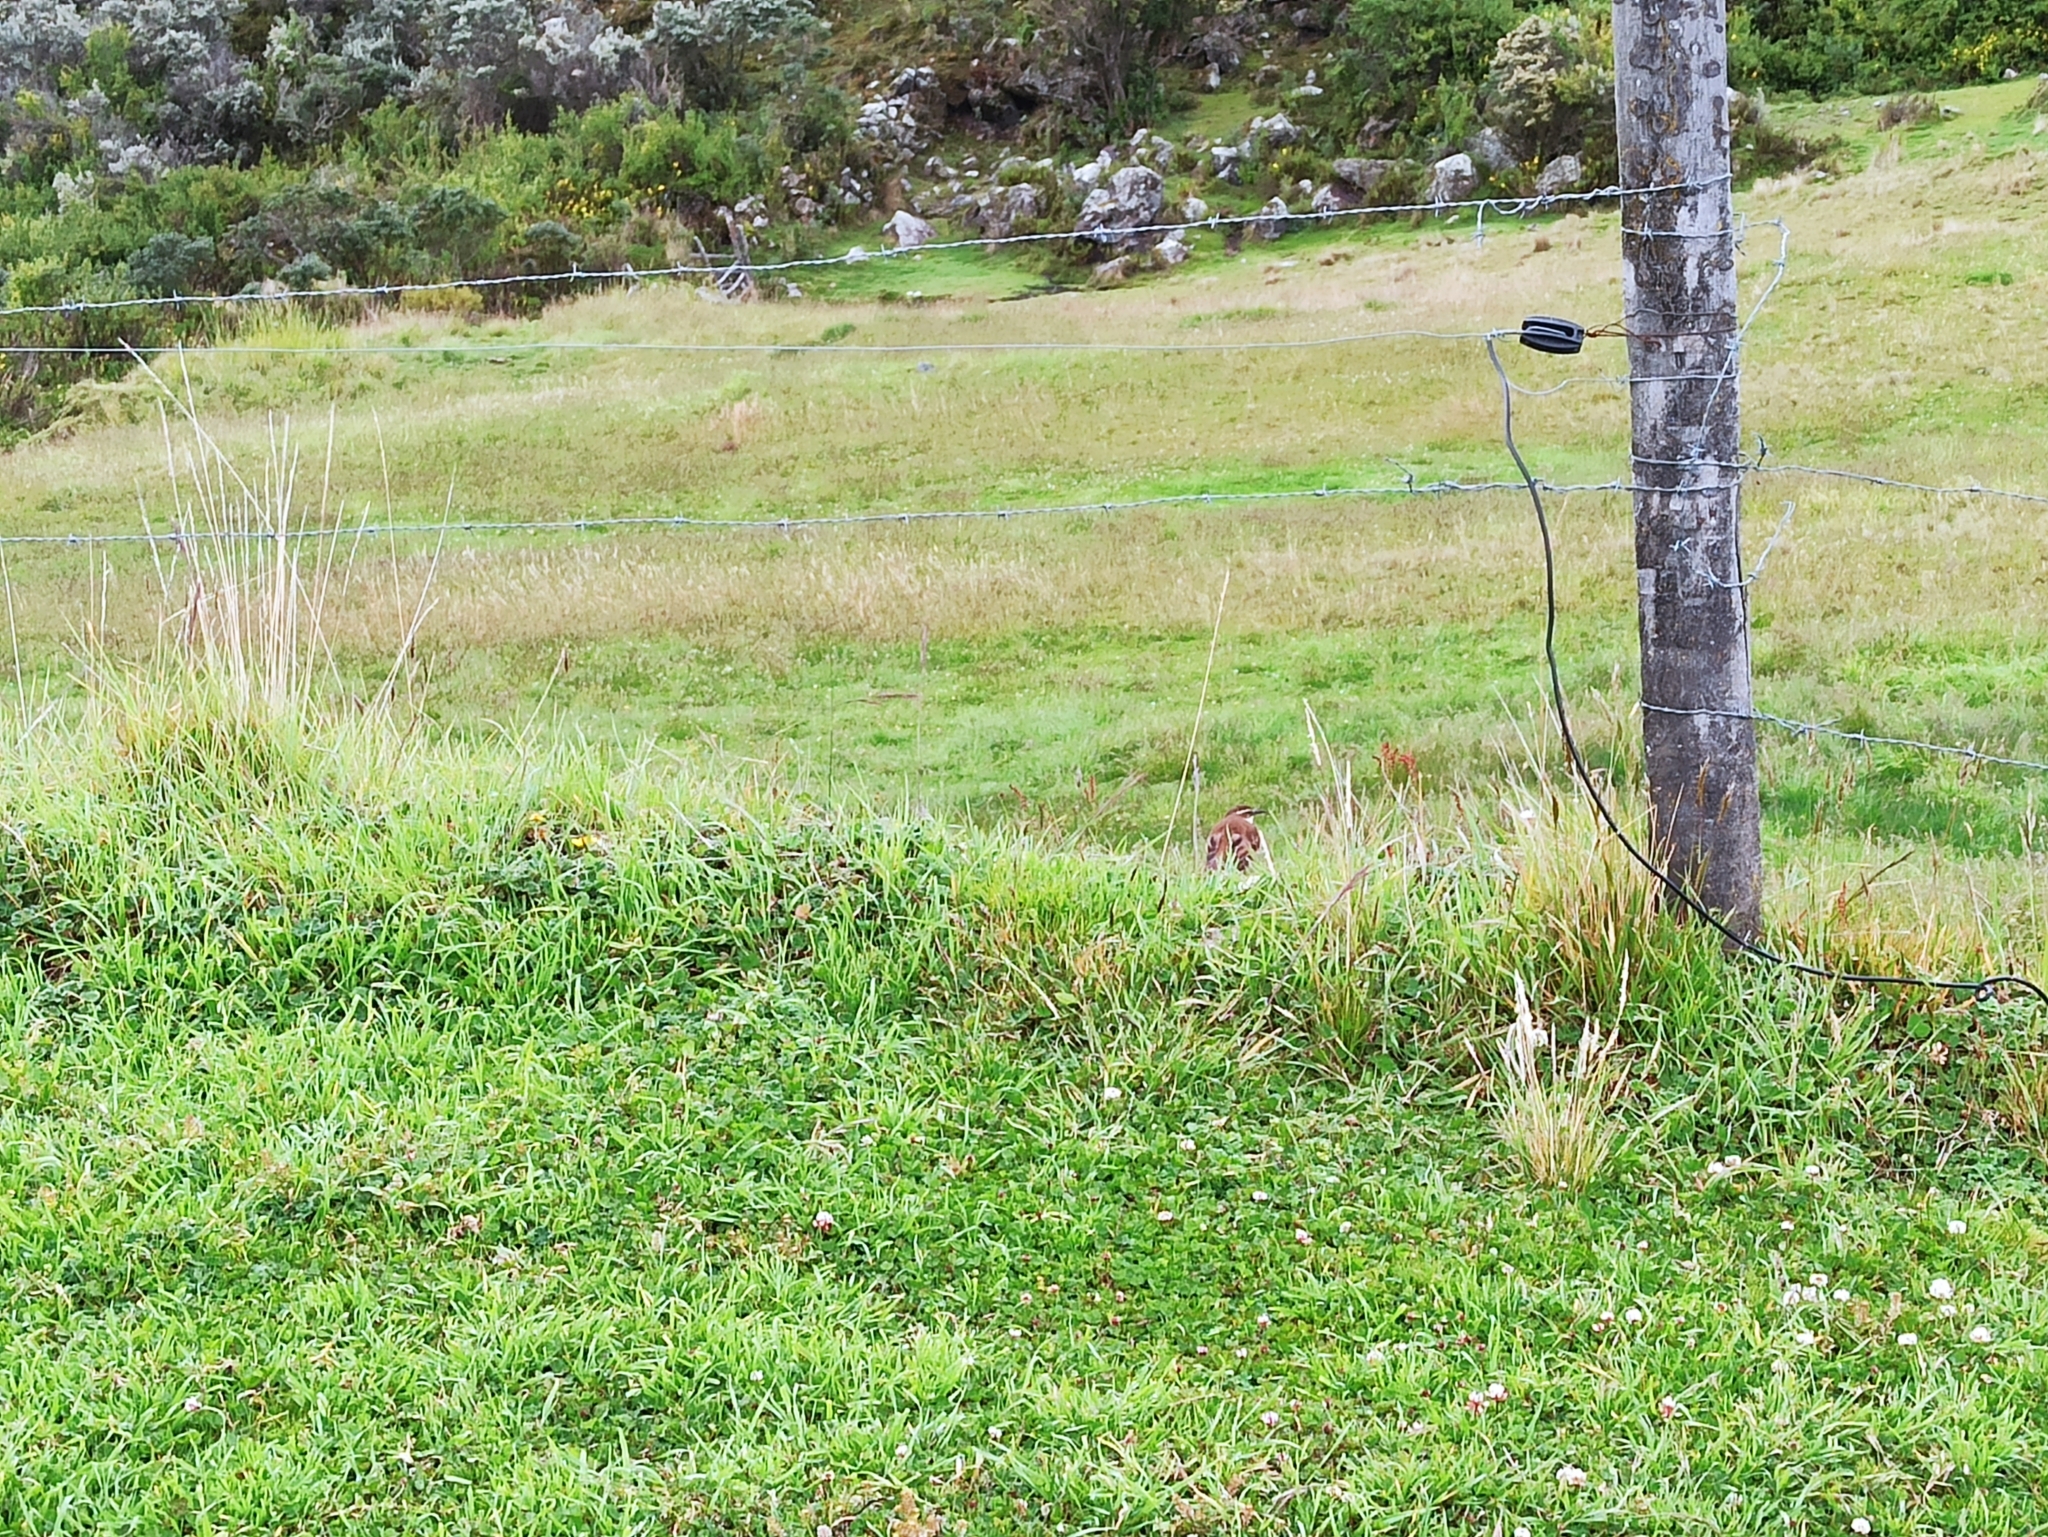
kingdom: Animalia
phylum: Chordata
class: Aves
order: Passeriformes
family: Furnariidae
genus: Cinclodes
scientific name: Cinclodes excelsior
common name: Stout-billed cinclodes
